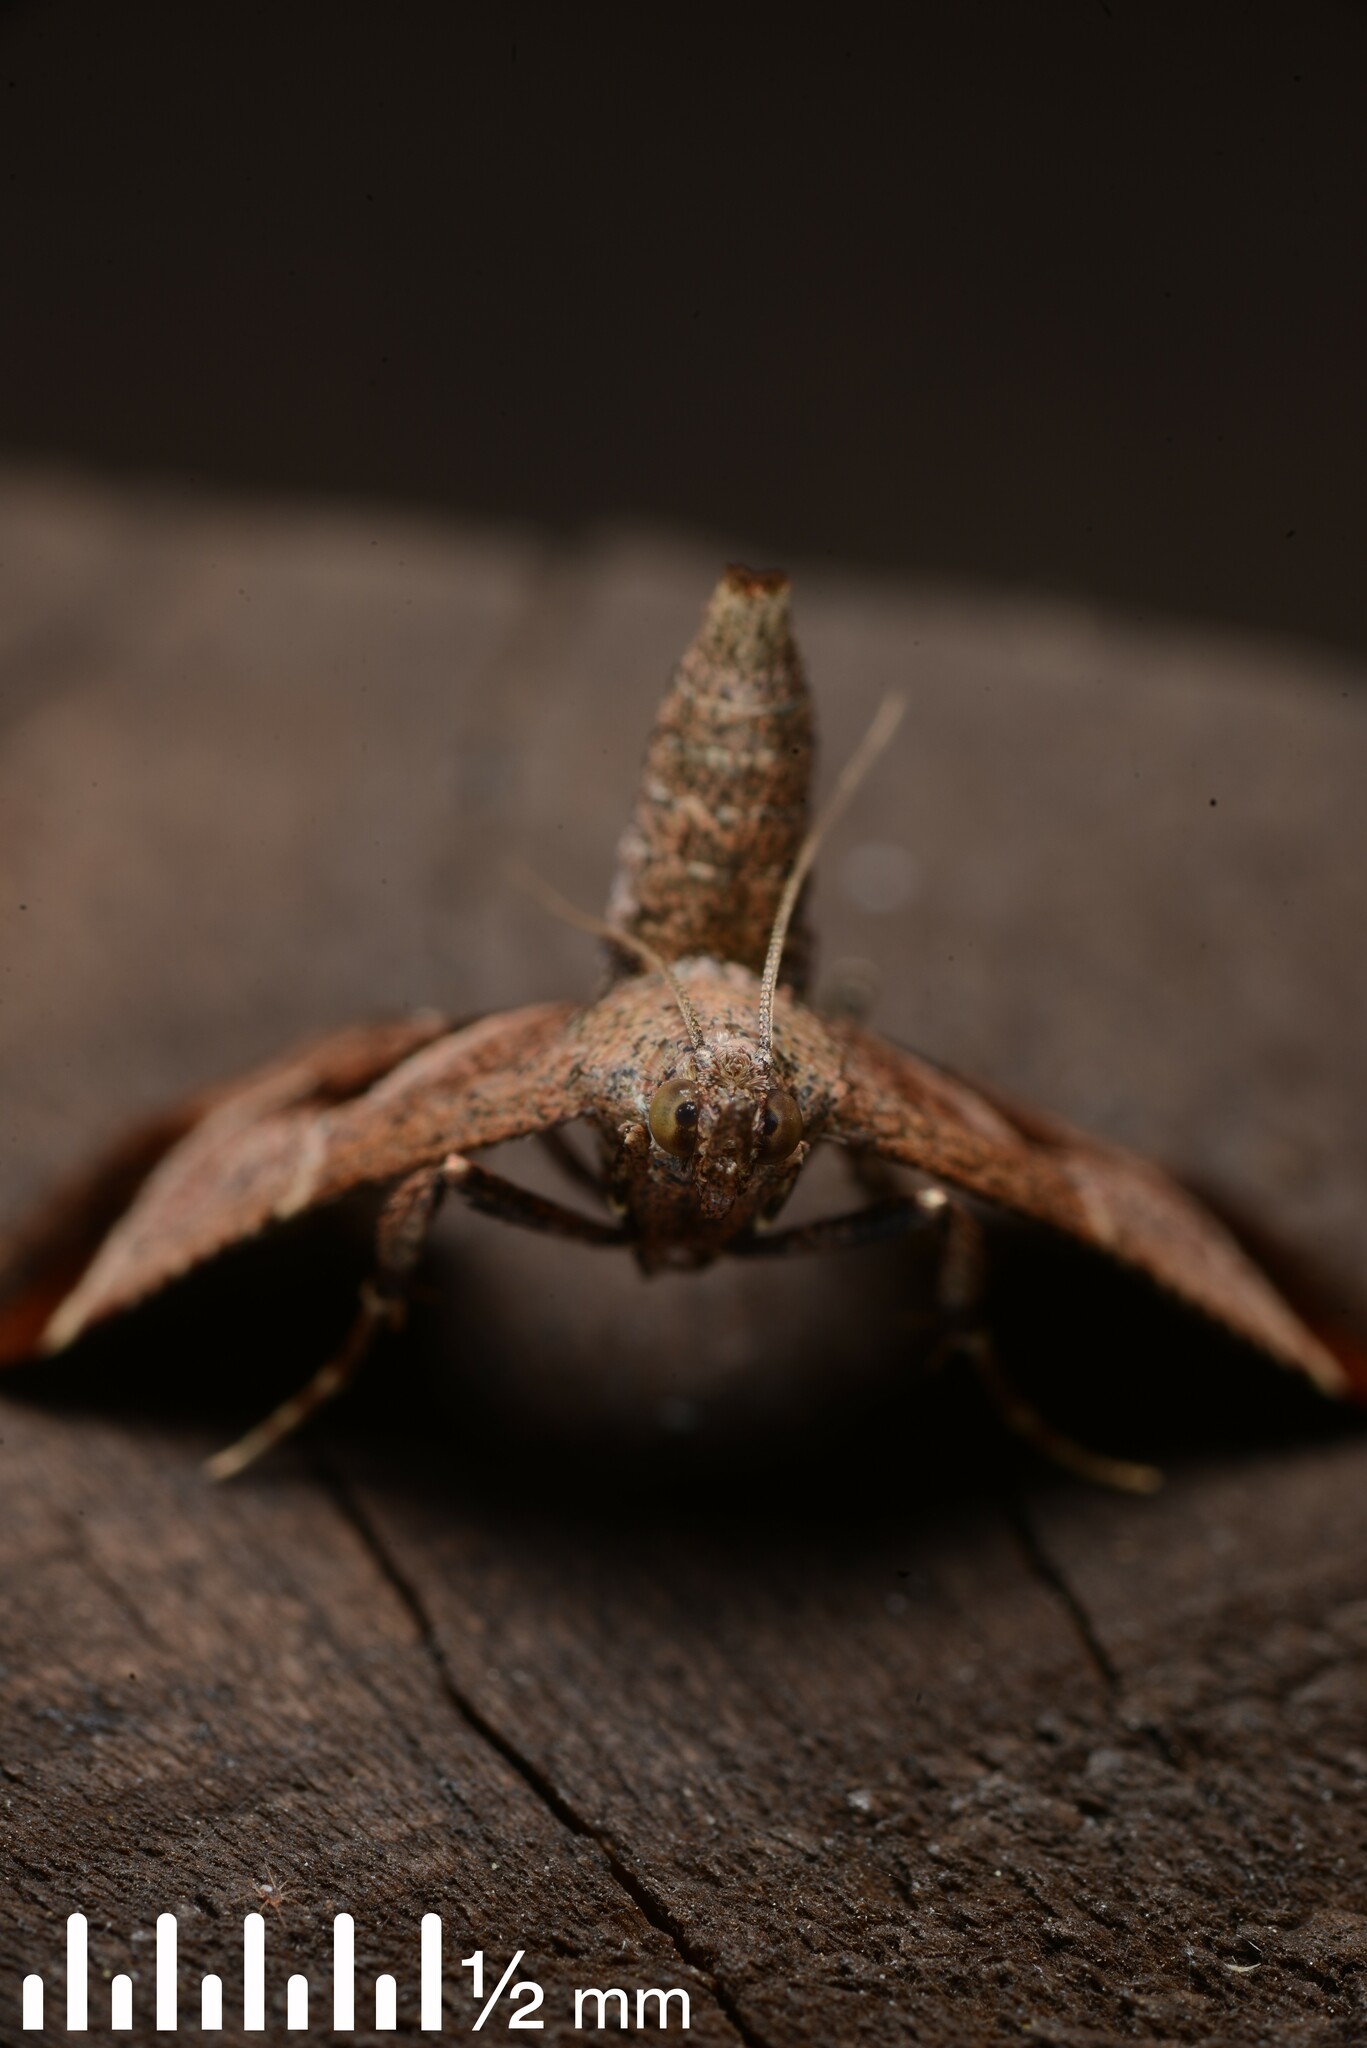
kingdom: Animalia
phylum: Arthropoda
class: Insecta
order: Lepidoptera
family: Pyralidae
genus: Gauna
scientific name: Gauna aegusalis
